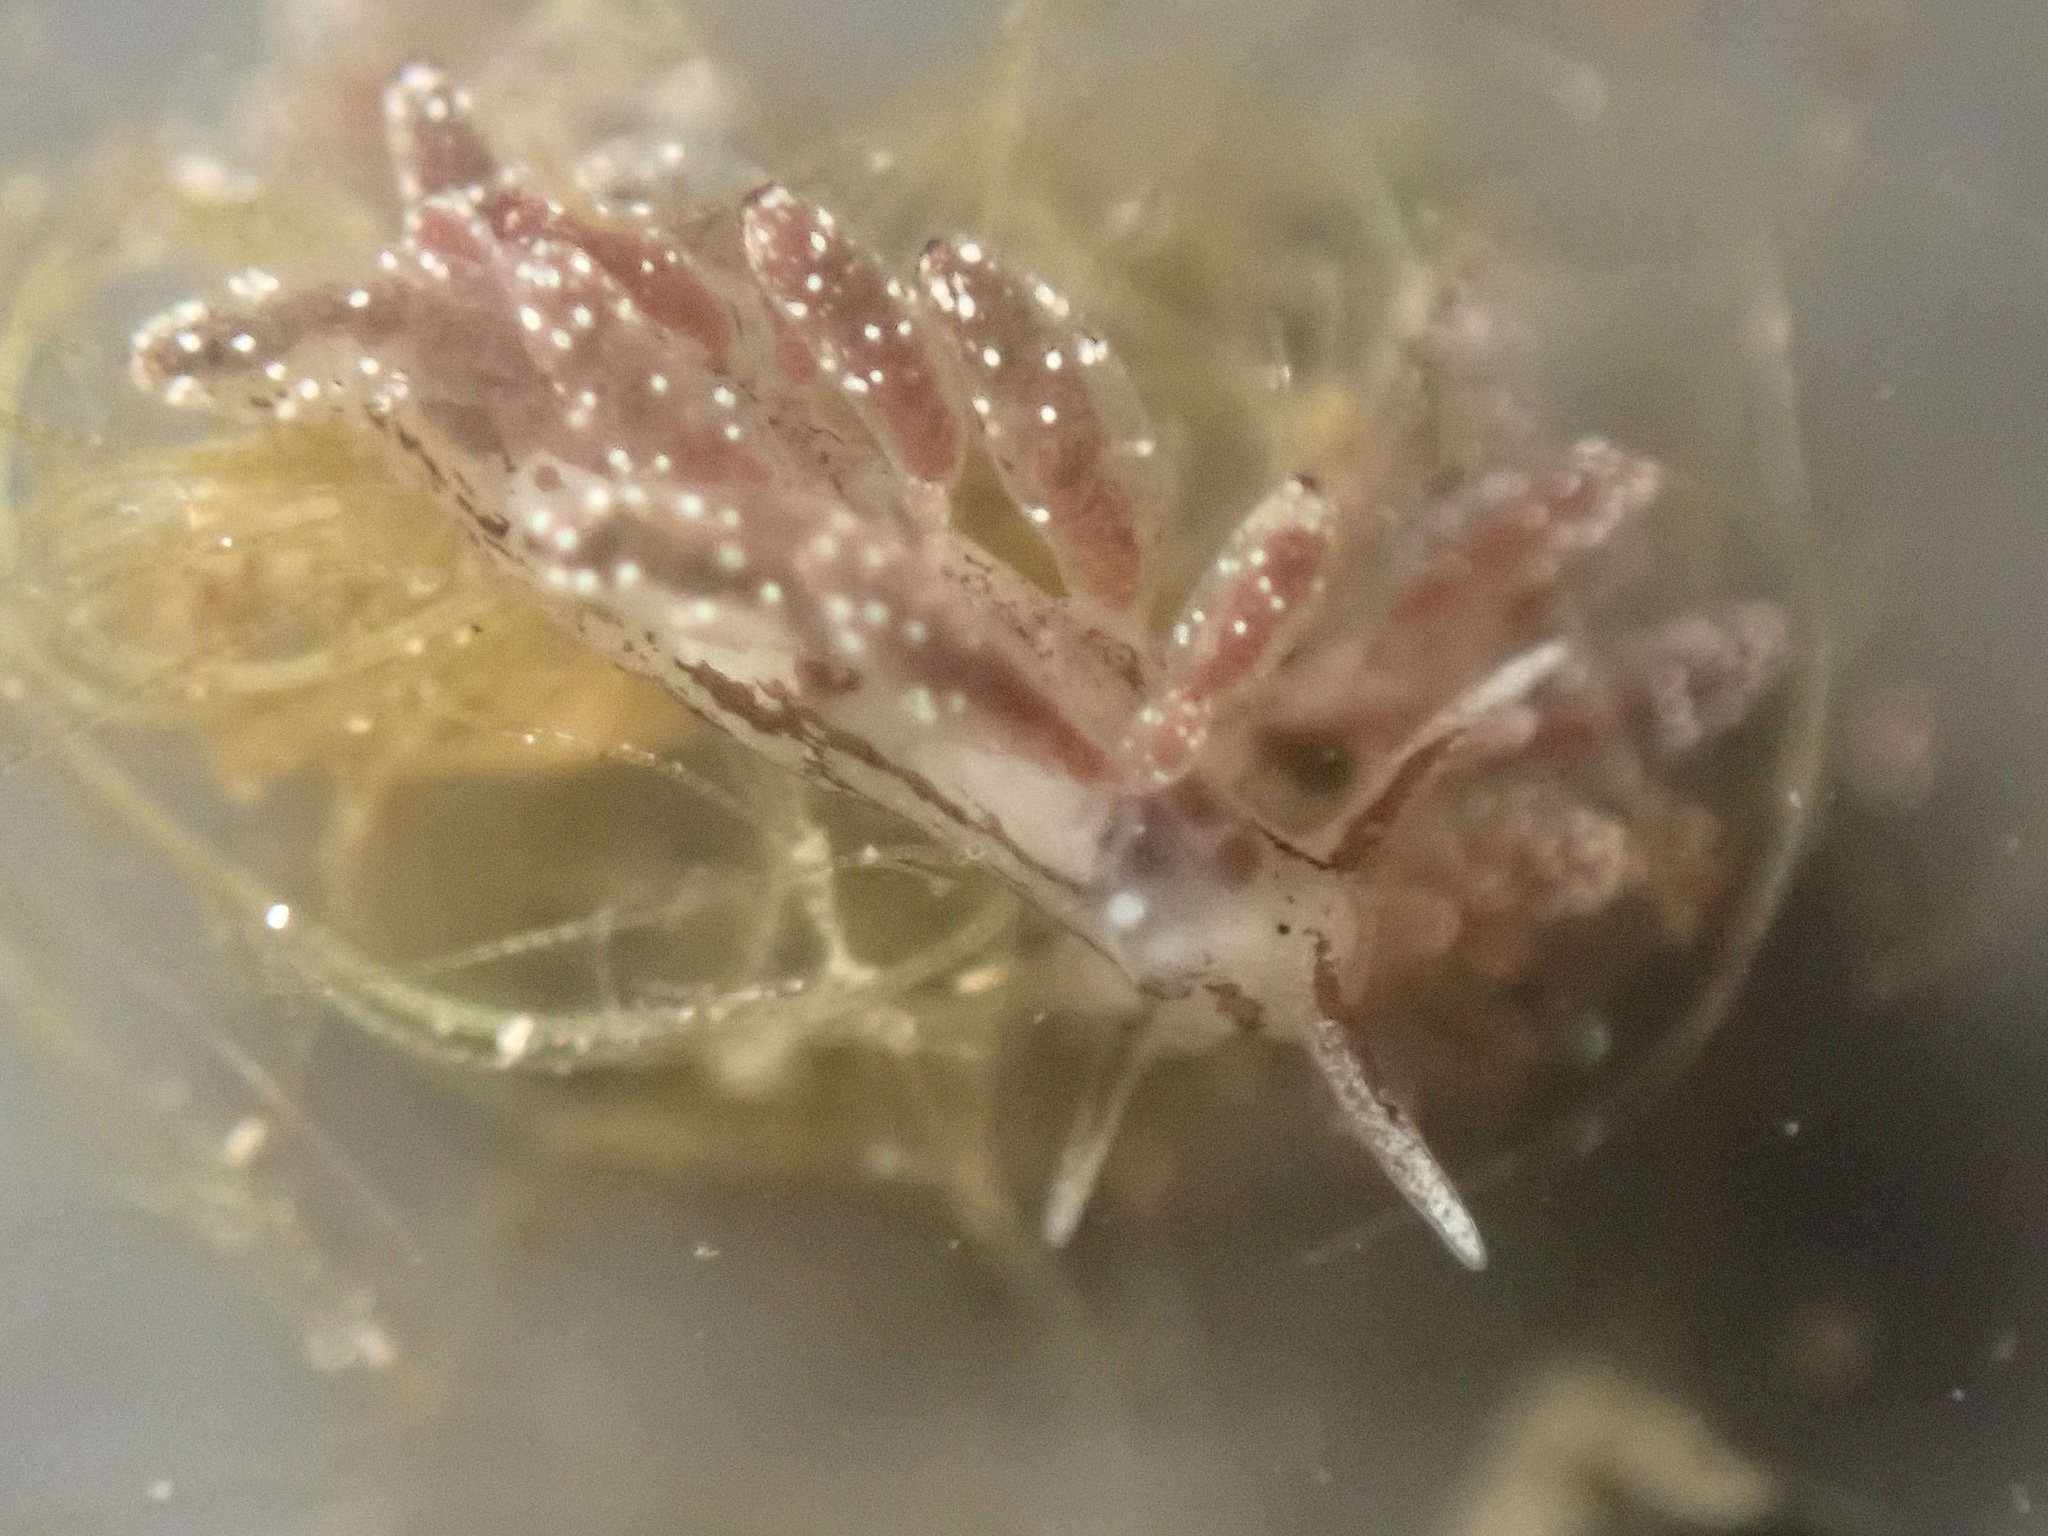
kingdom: Animalia
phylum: Mollusca
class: Gastropoda
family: Limapontiidae
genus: Stiliger
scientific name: Stiliger fuscovittatus
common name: Brown-streak stiliger
